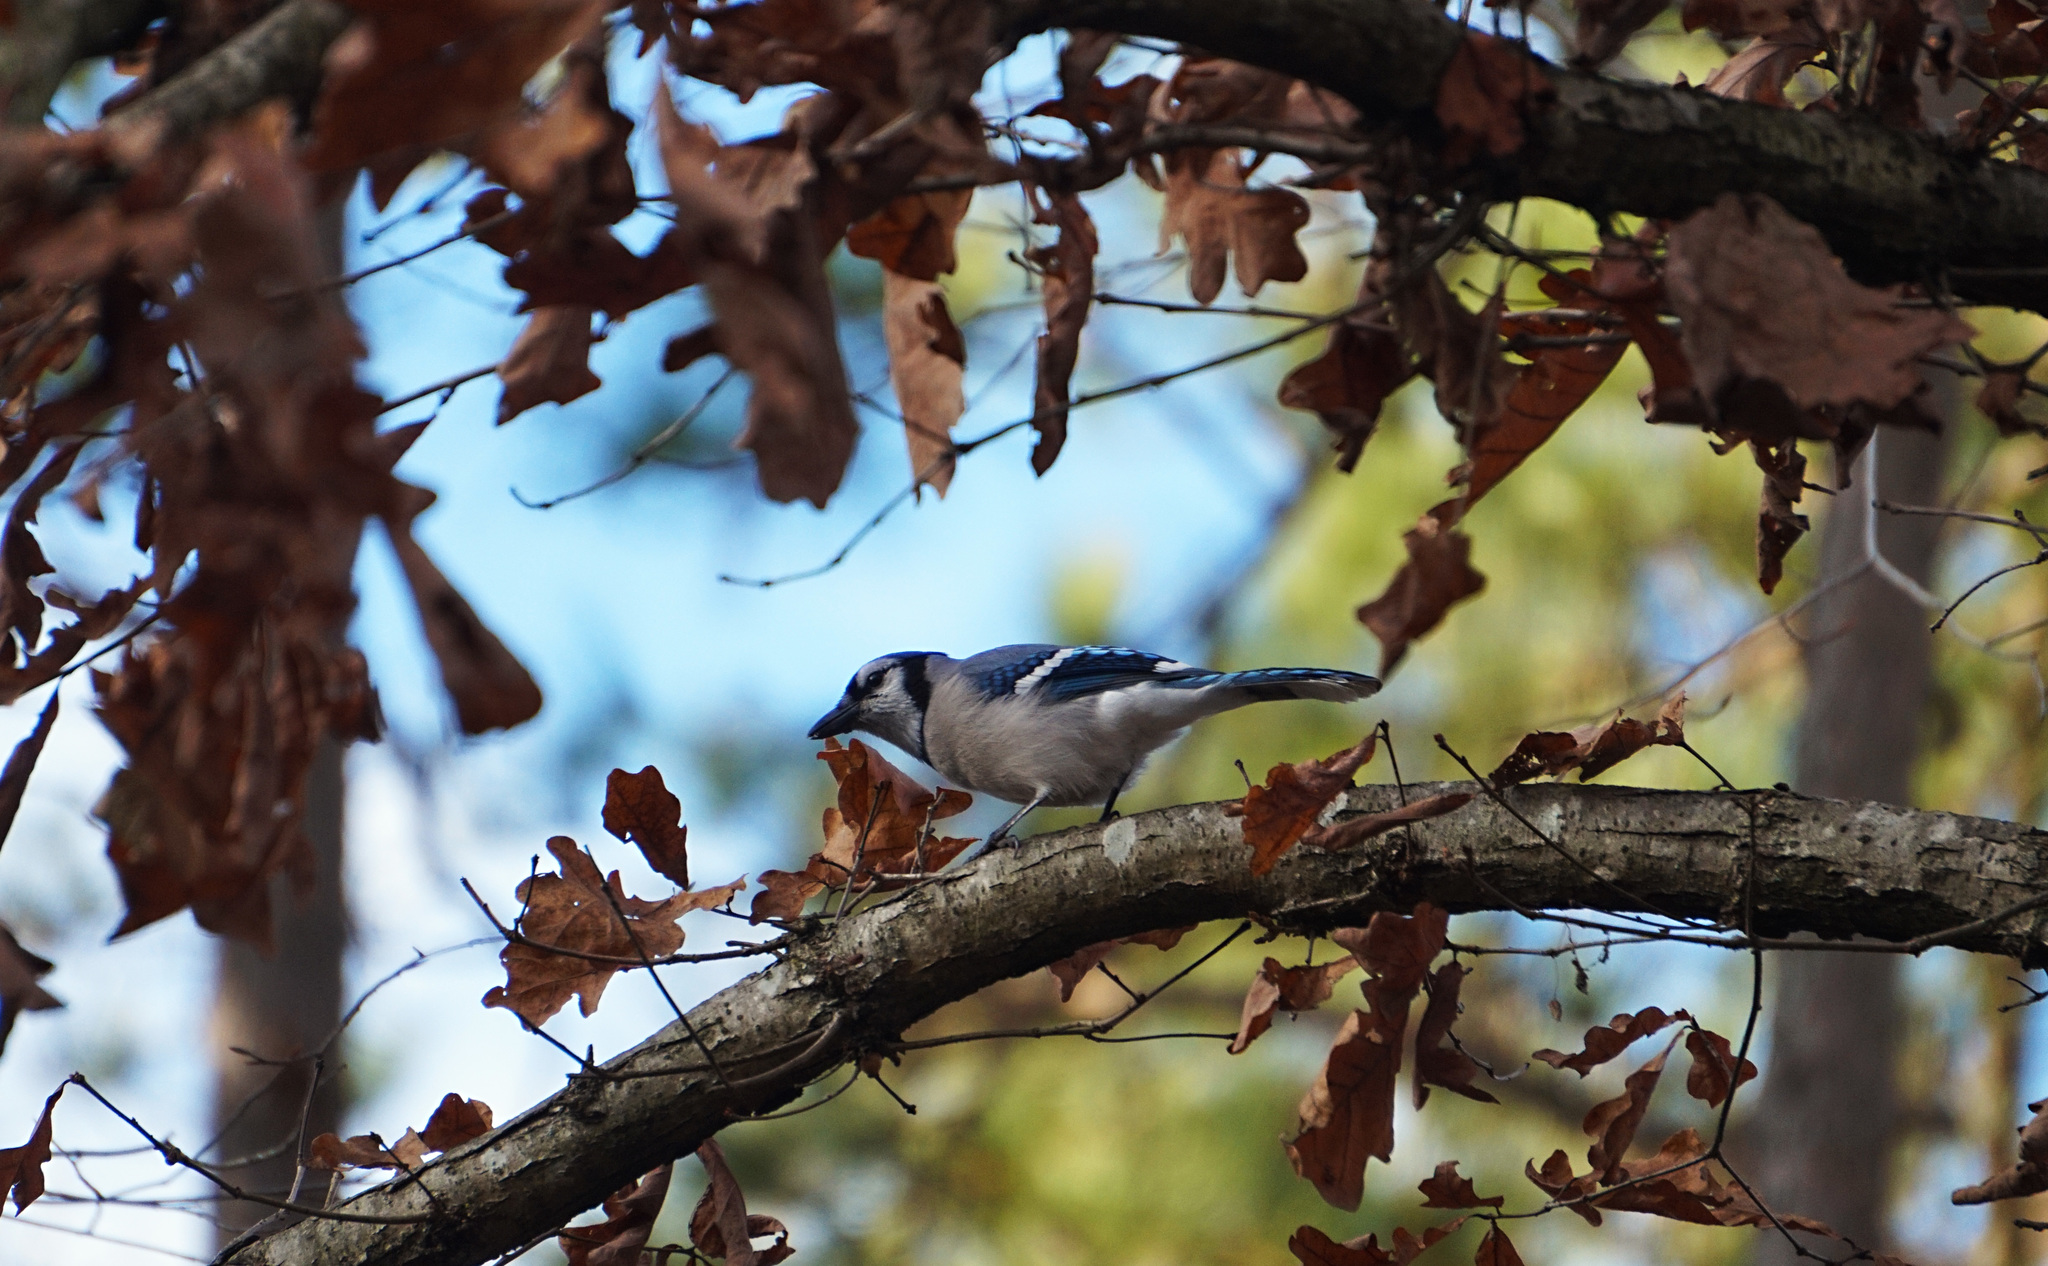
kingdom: Animalia
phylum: Chordata
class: Aves
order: Passeriformes
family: Corvidae
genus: Cyanocitta
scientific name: Cyanocitta cristata
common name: Blue jay
